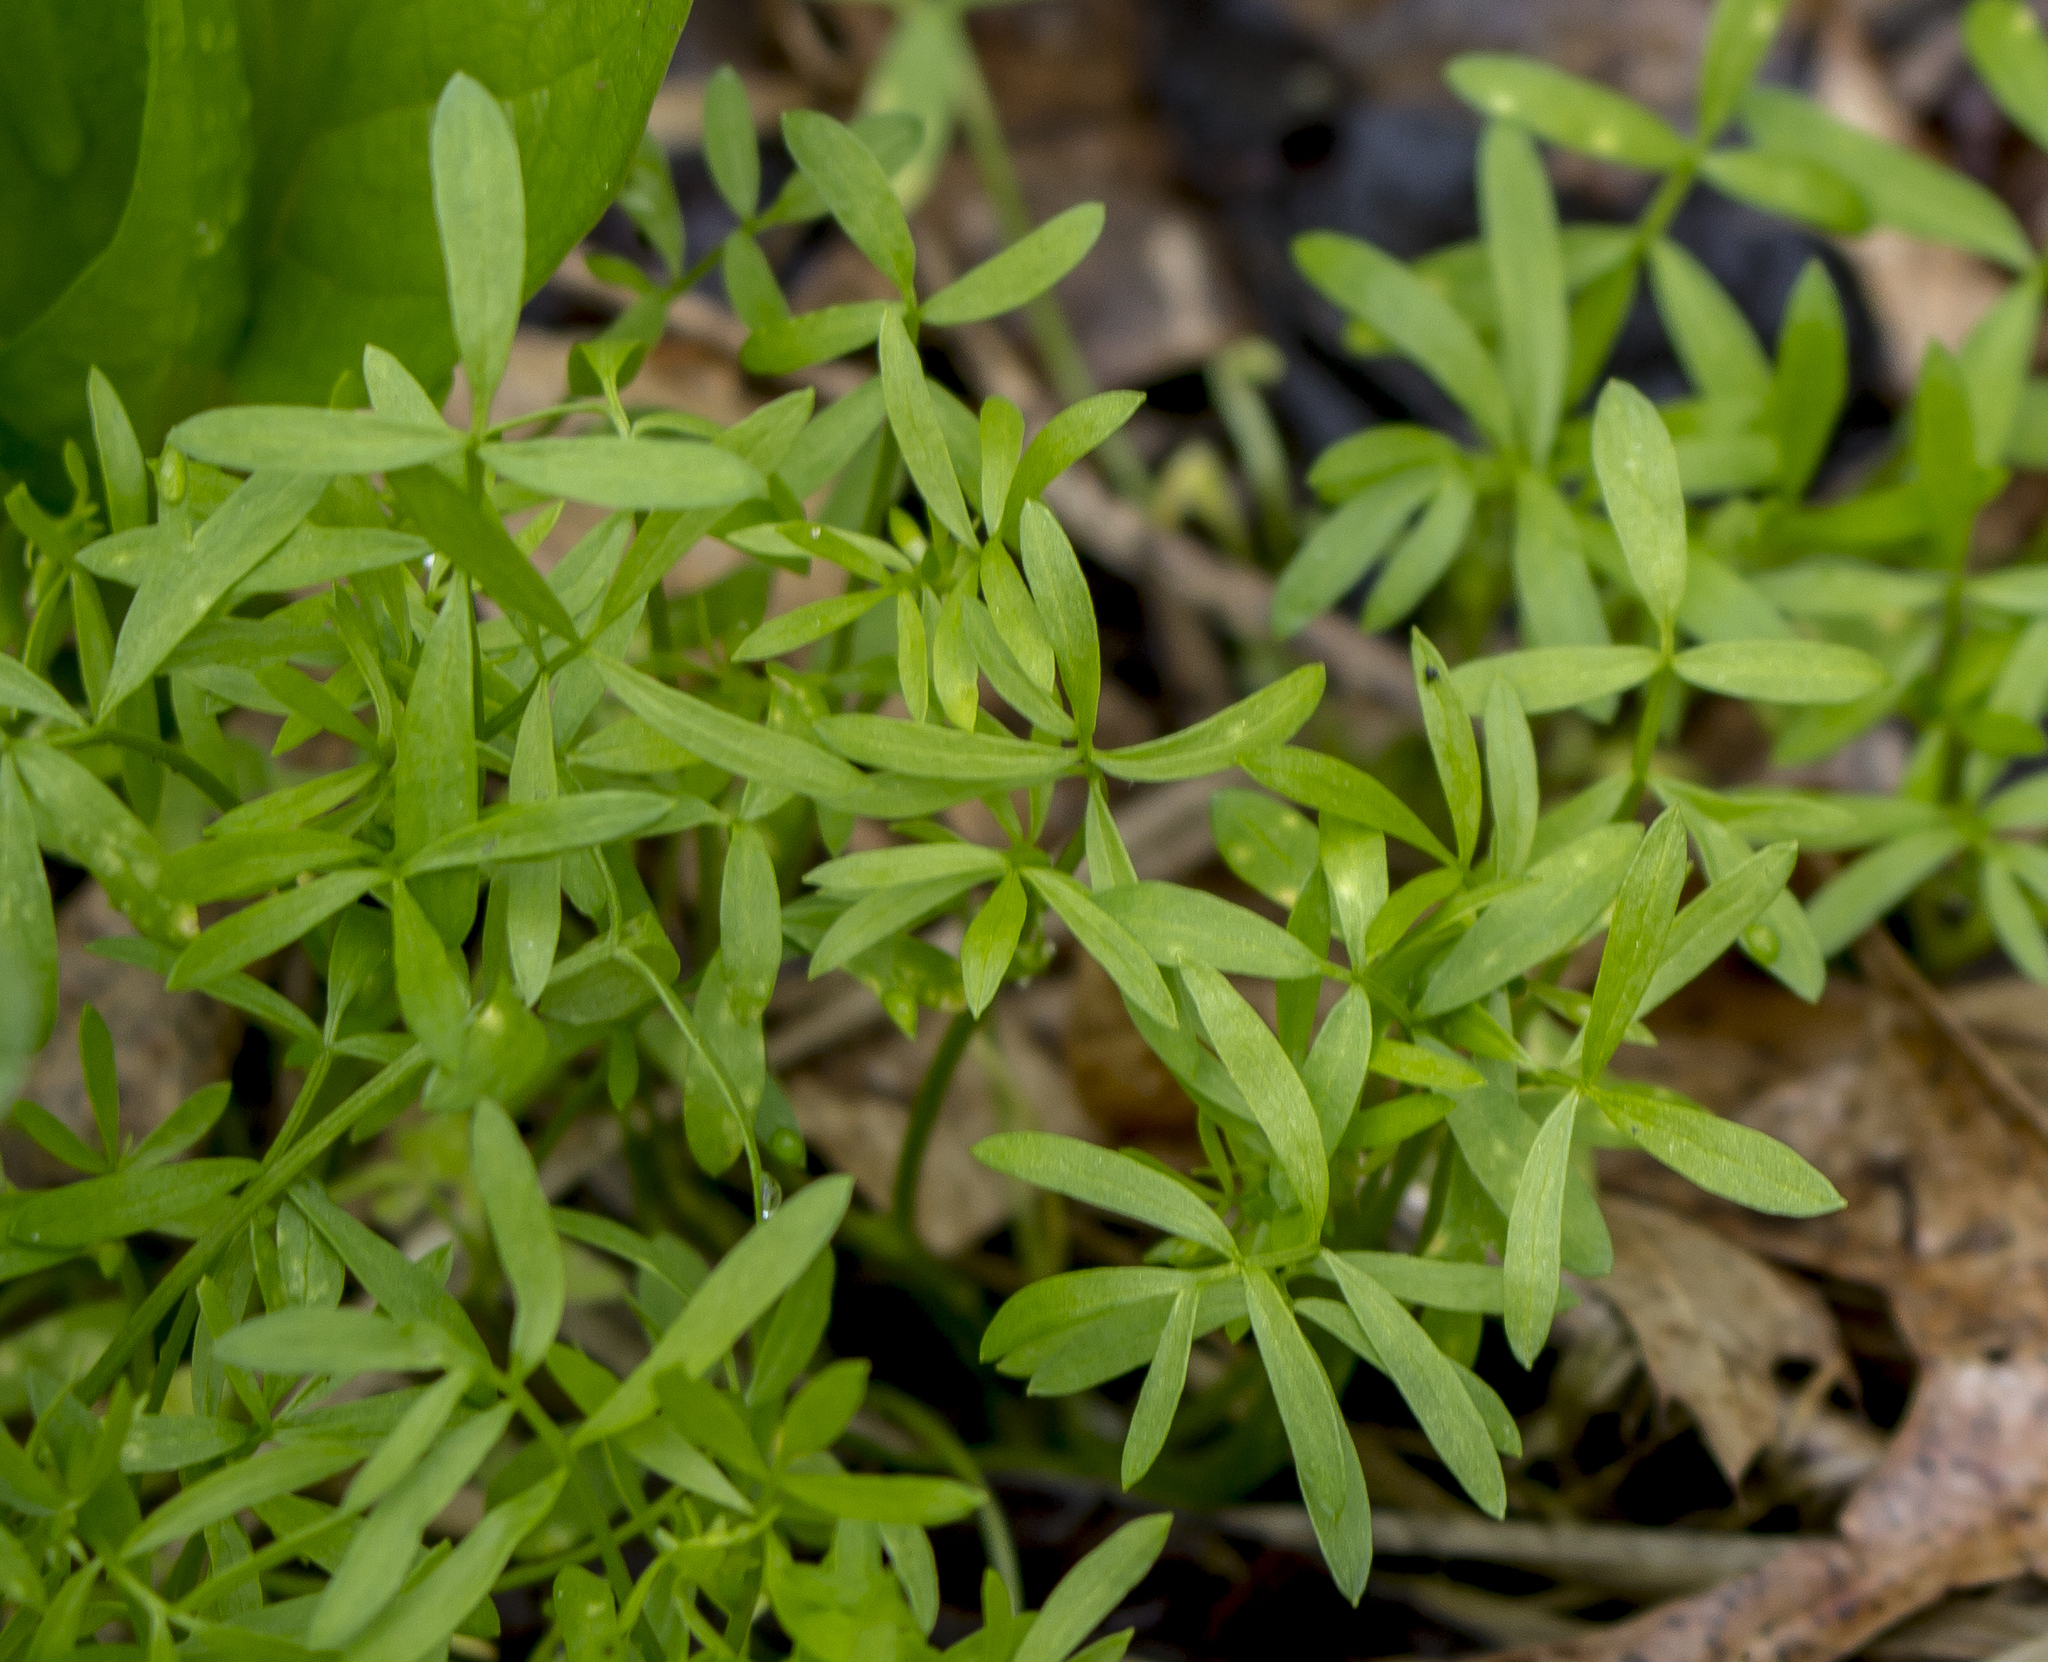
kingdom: Plantae
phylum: Tracheophyta
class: Magnoliopsida
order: Brassicales
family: Limnanthaceae
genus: Floerkea
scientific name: Floerkea proserpinacoides
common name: False mermaid
